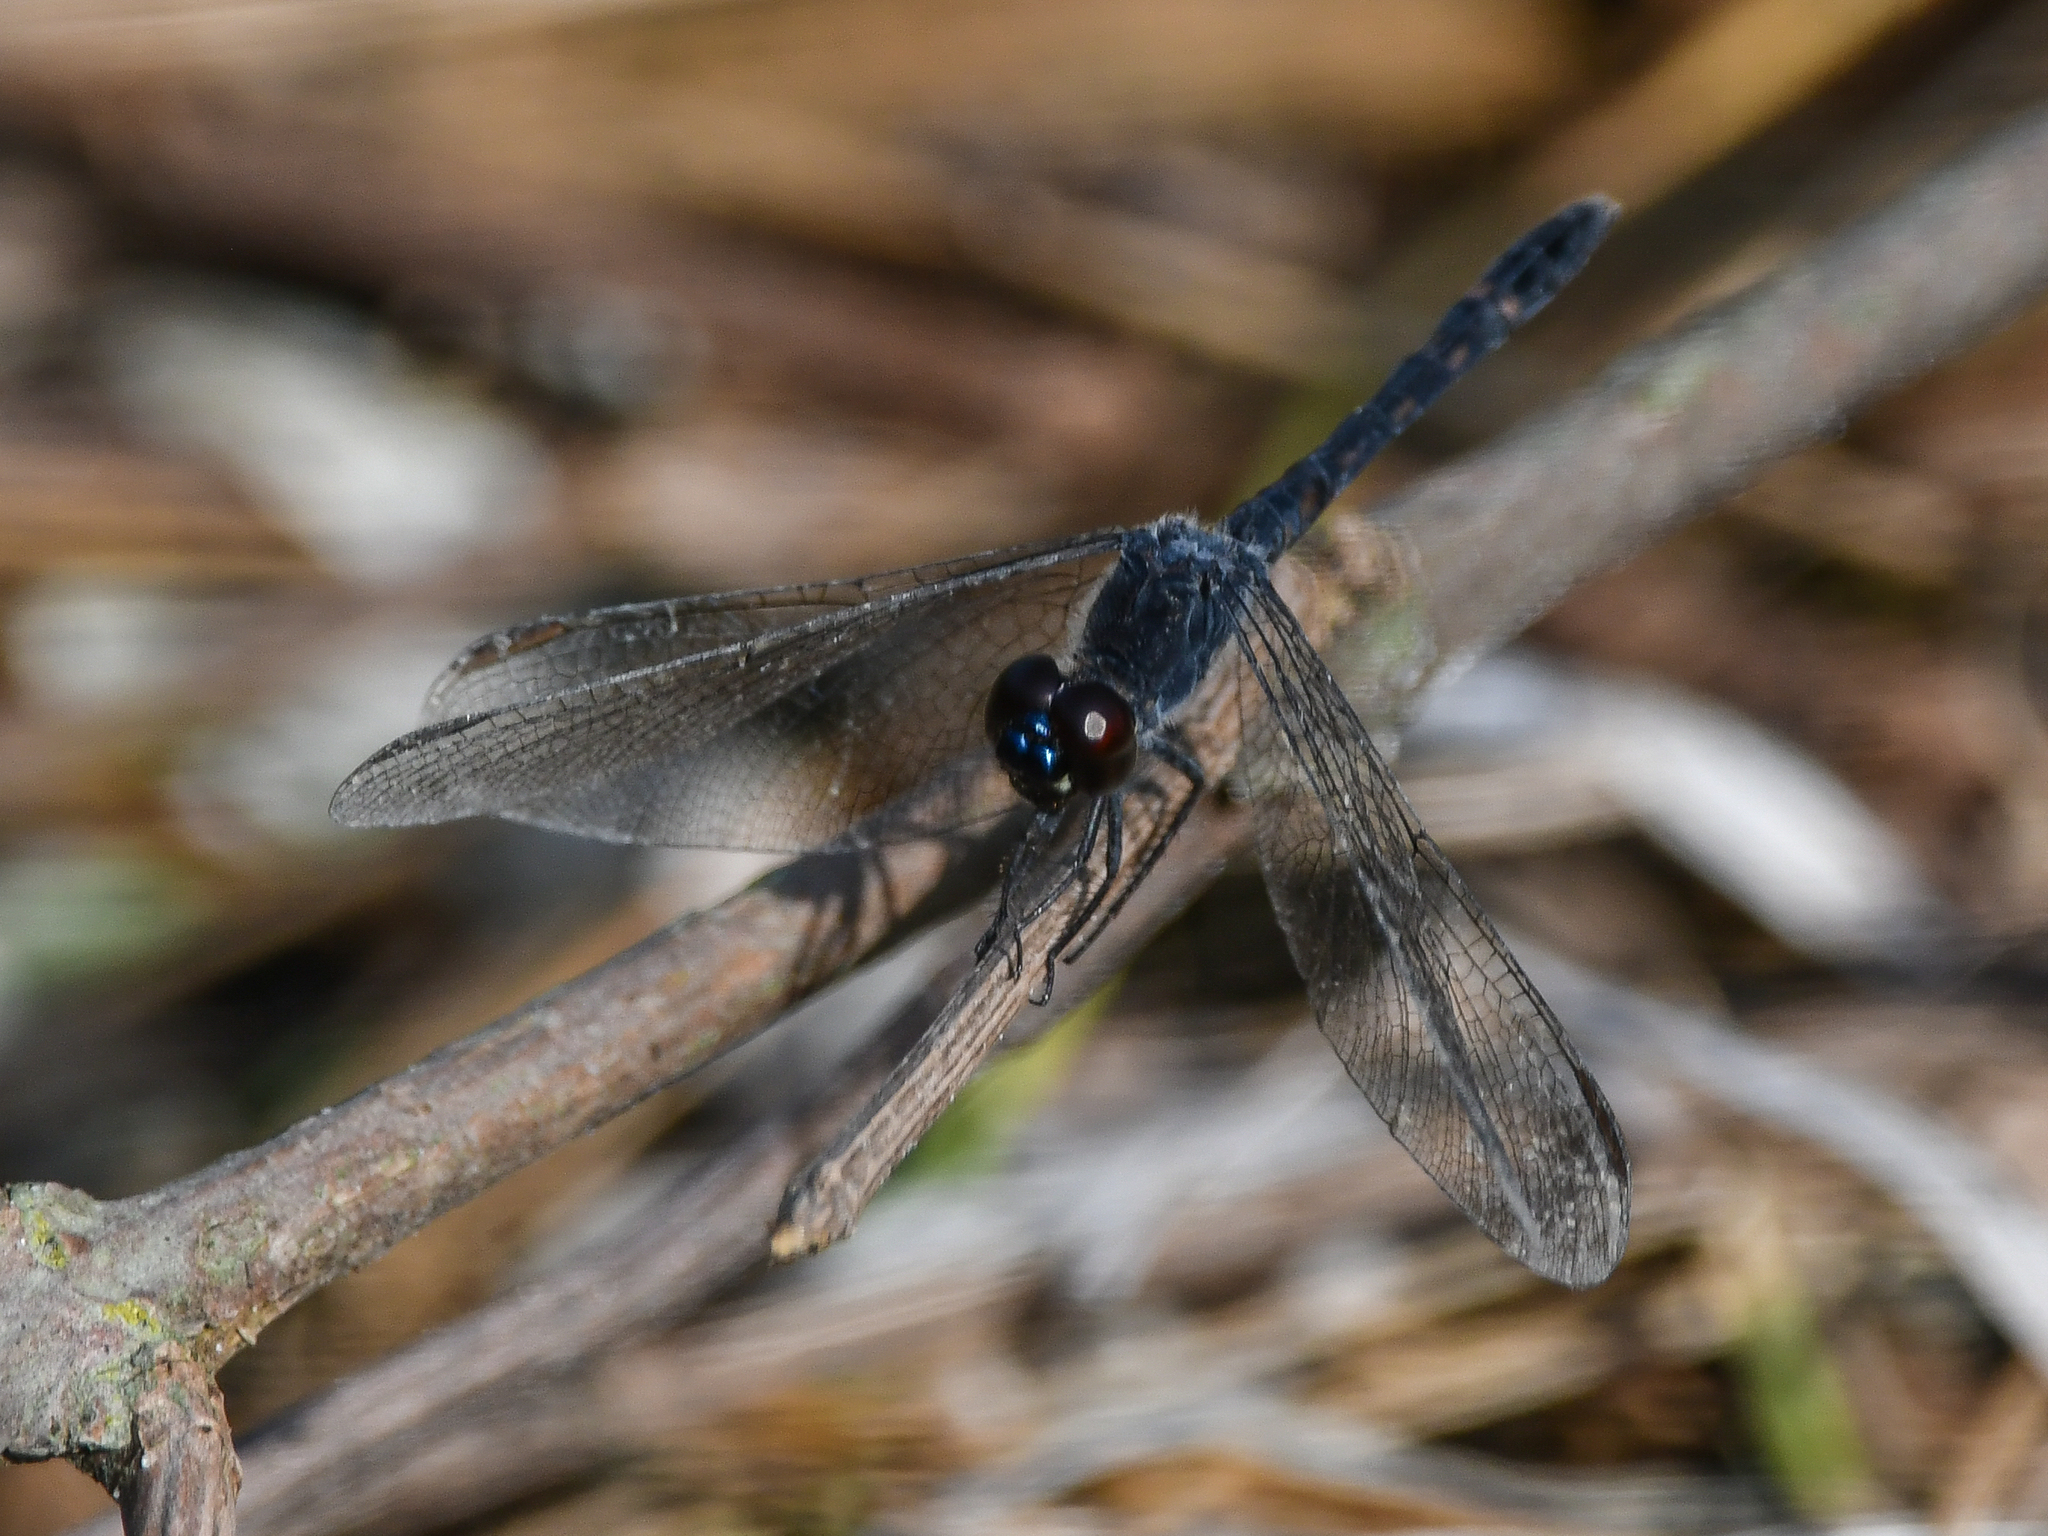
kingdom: Animalia
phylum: Arthropoda
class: Insecta
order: Odonata
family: Libellulidae
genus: Erythrodiplax
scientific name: Erythrodiplax berenice
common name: Seaside dragonlet
